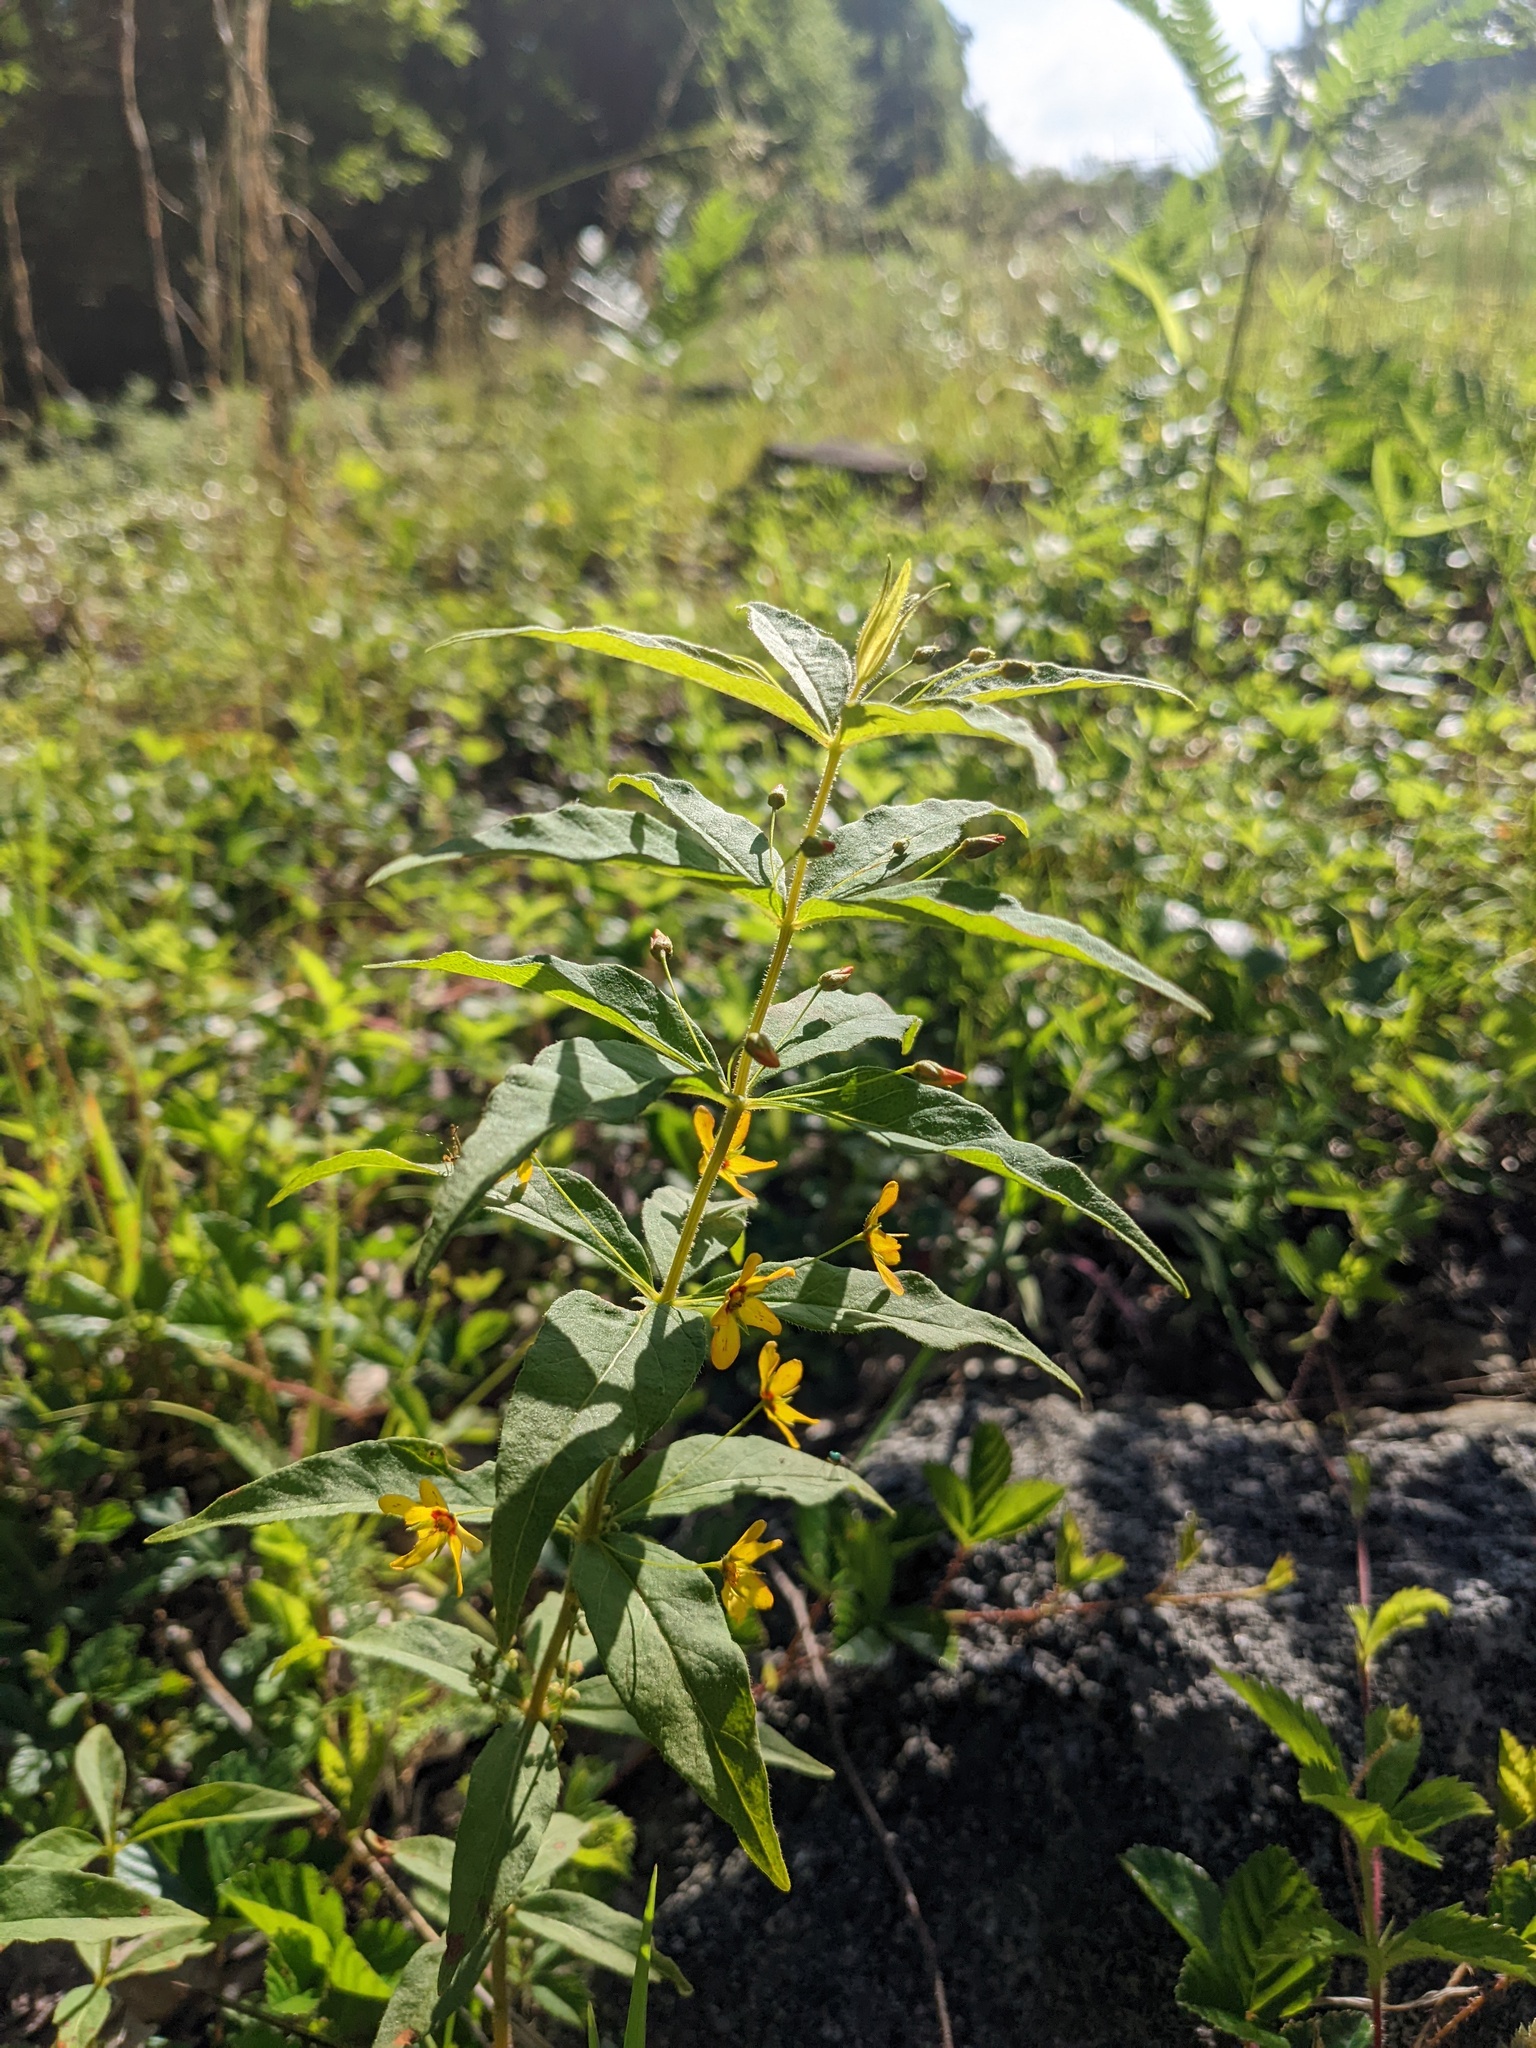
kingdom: Plantae
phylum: Tracheophyta
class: Magnoliopsida
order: Ericales
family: Primulaceae
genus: Lysimachia
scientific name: Lysimachia quadrifolia
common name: Whorled loosestrife
